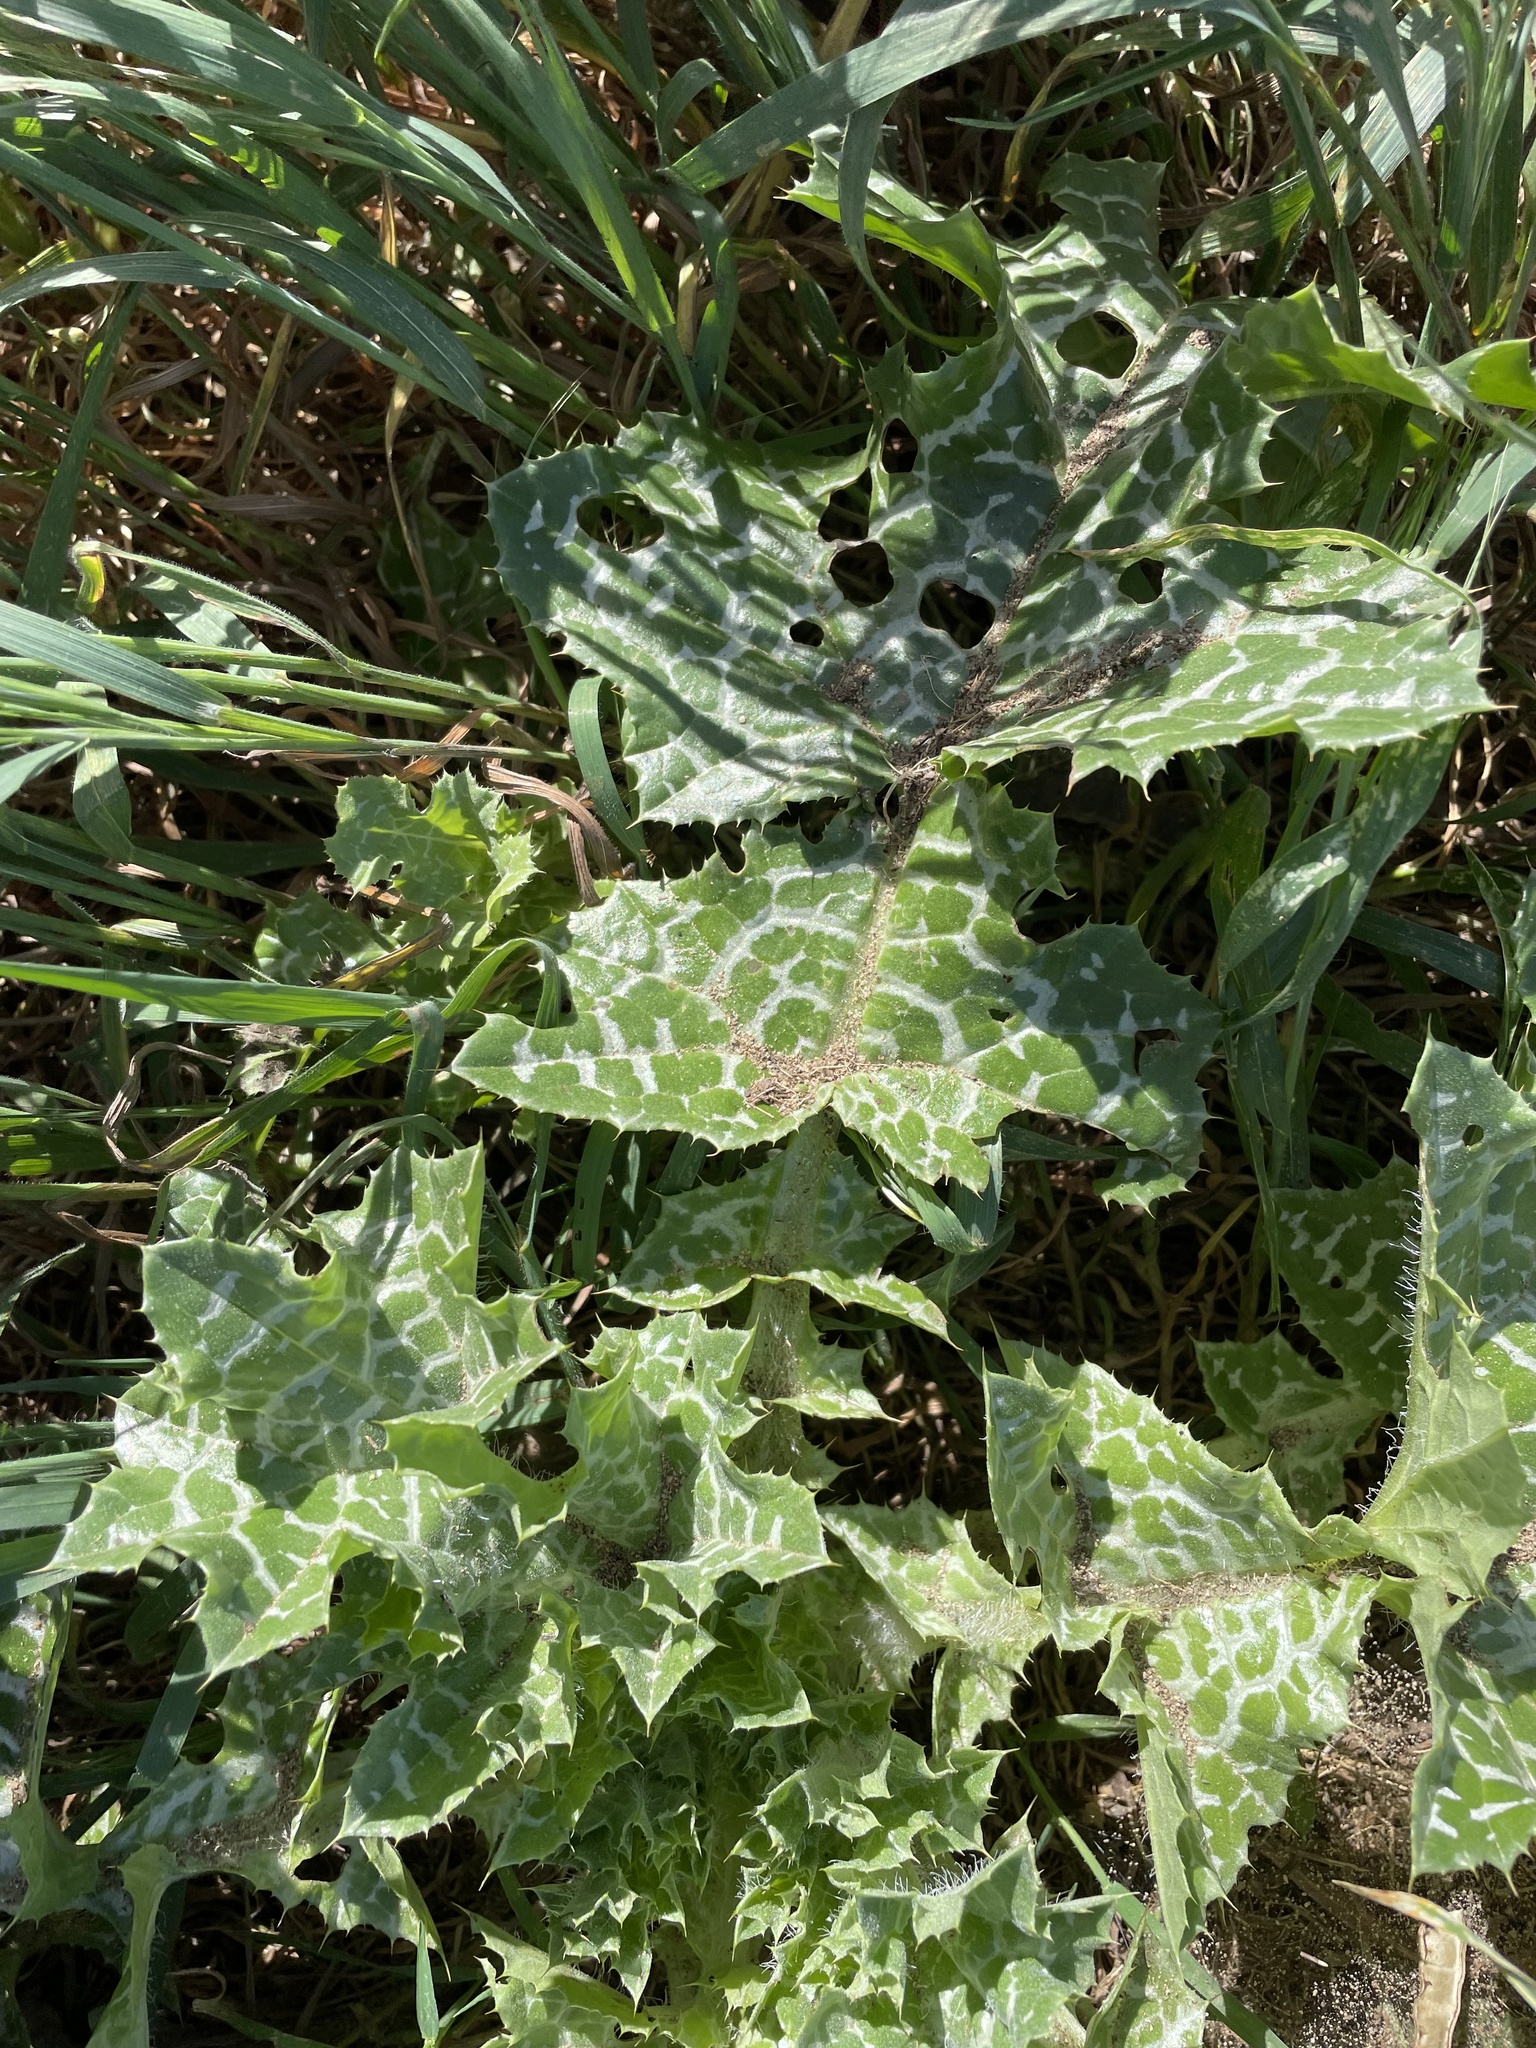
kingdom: Plantae
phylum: Tracheophyta
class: Magnoliopsida
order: Asterales
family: Asteraceae
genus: Silybum
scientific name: Silybum marianum
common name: Milk thistle
